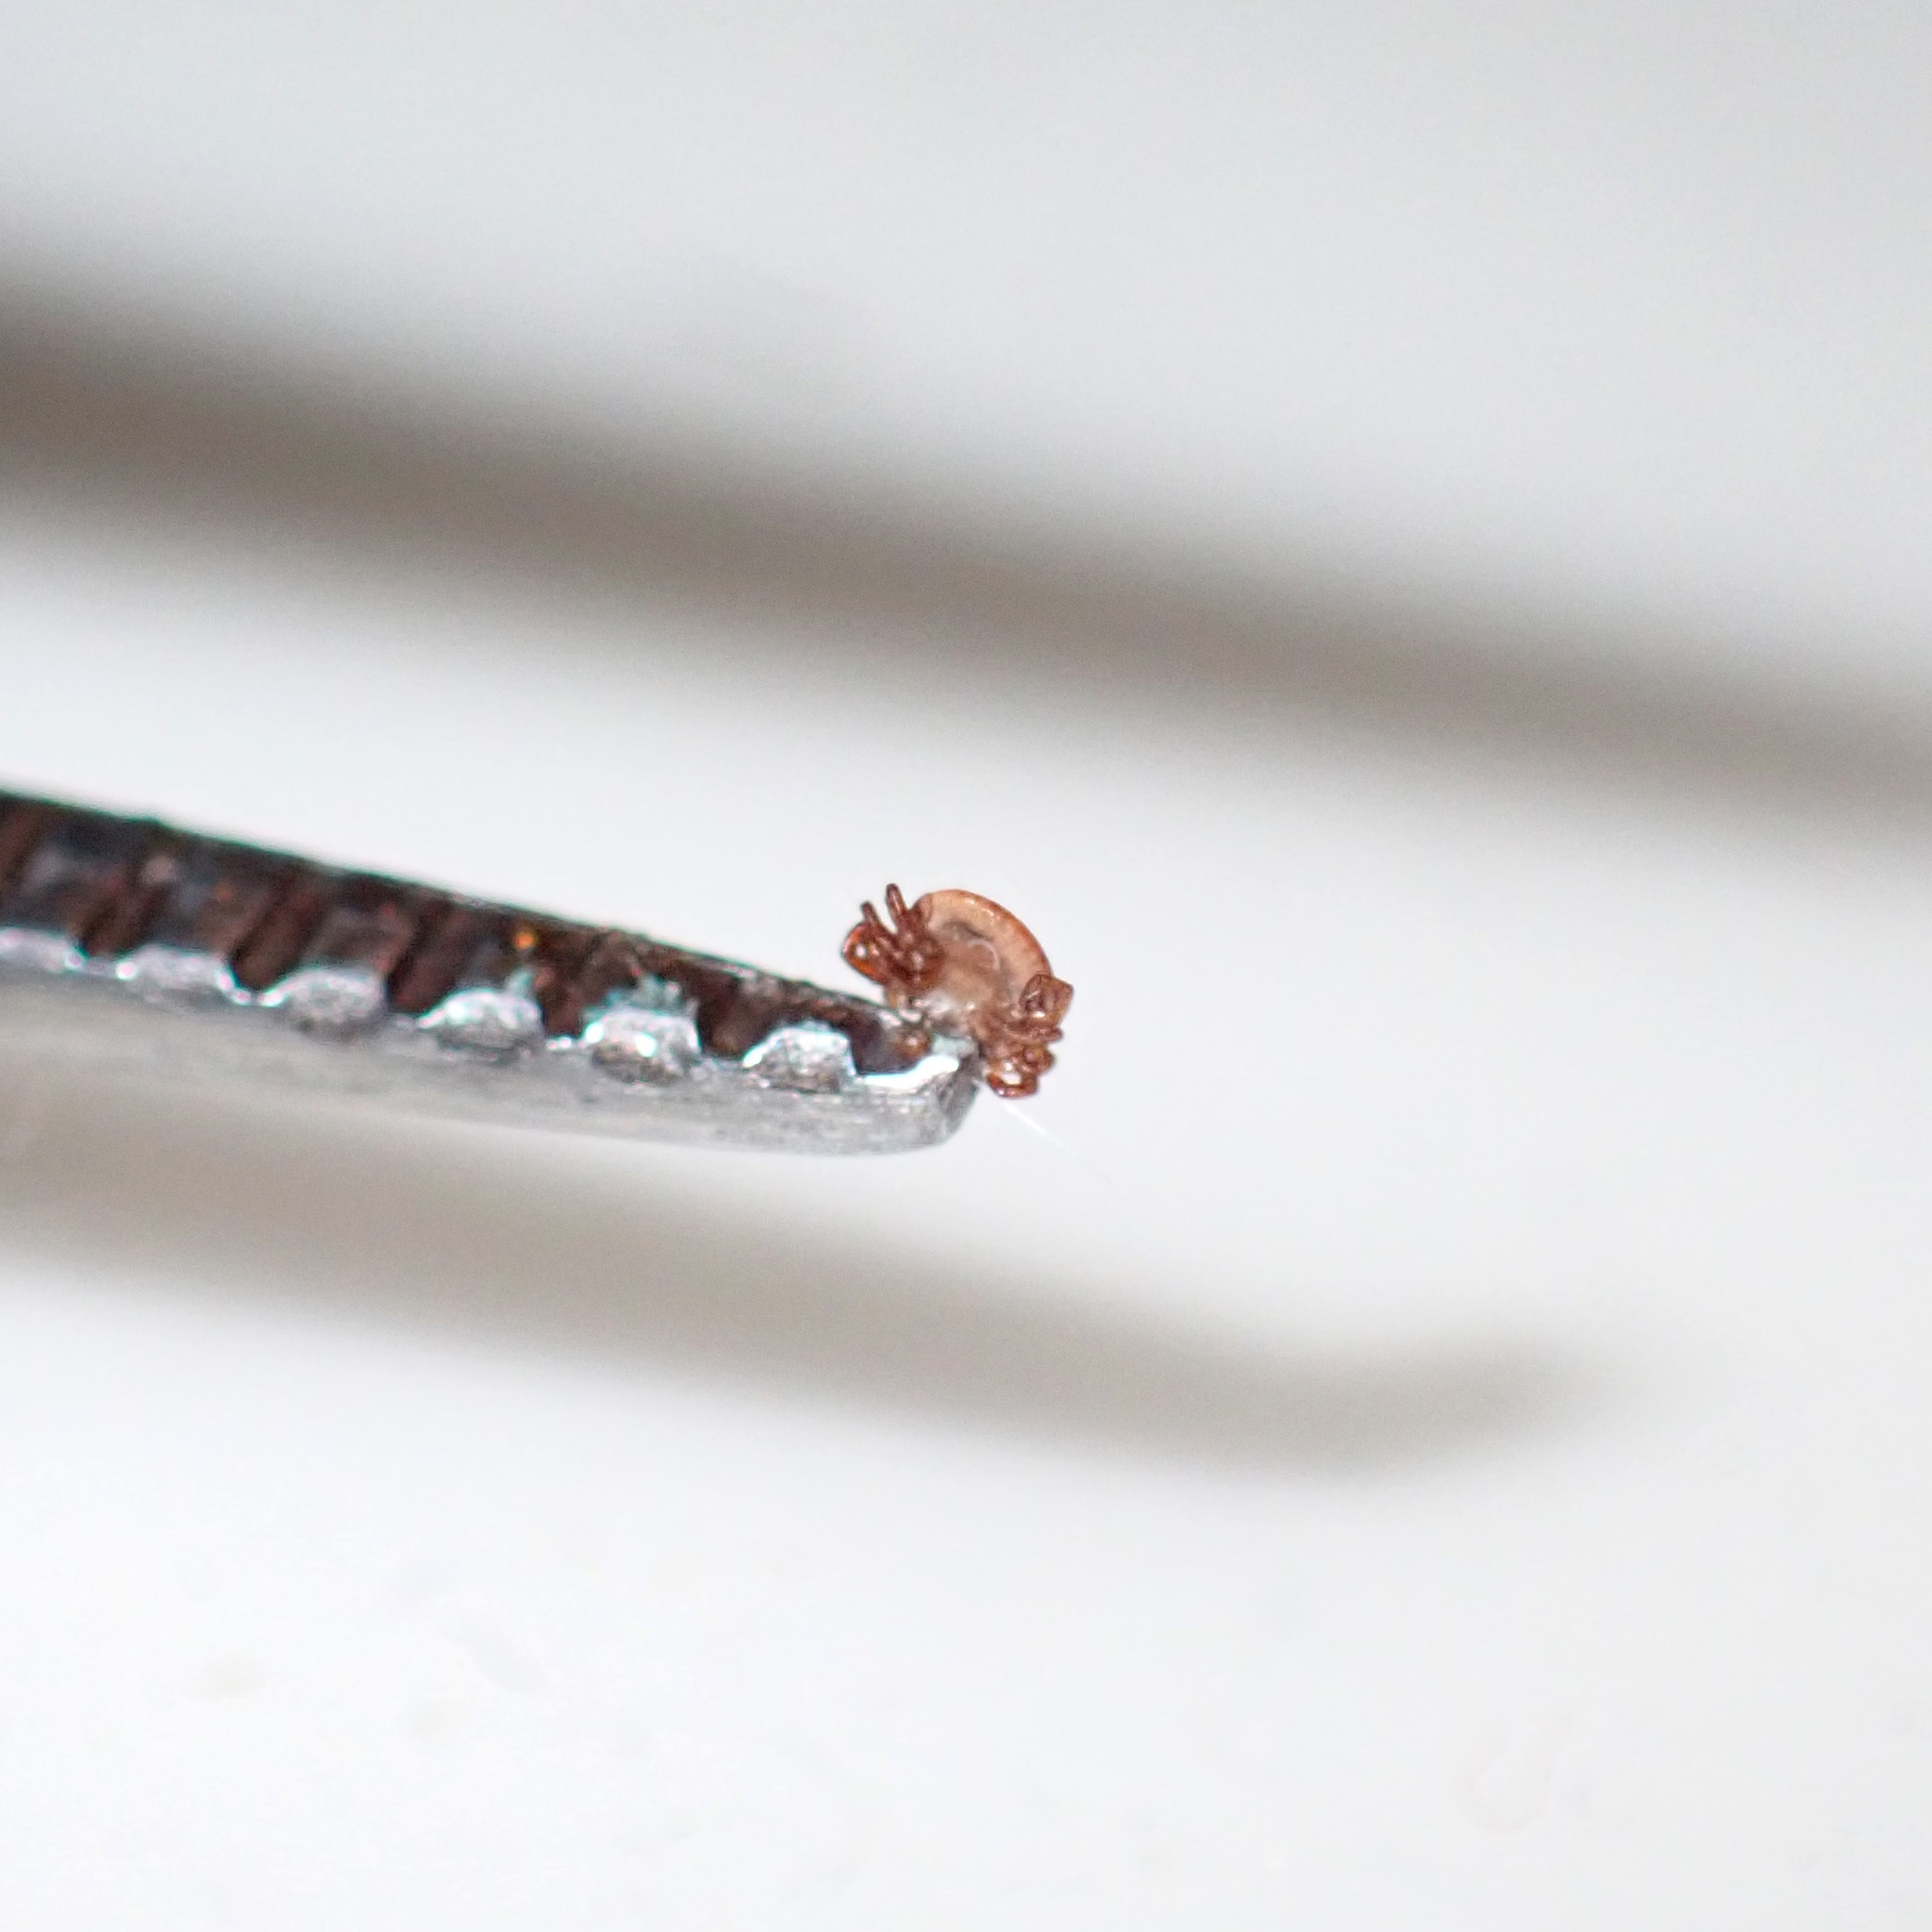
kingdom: Animalia
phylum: Arthropoda
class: Arachnida
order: Ixodida
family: Ixodidae
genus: Amblyomma
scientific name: Amblyomma americanum
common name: Lone star tick
